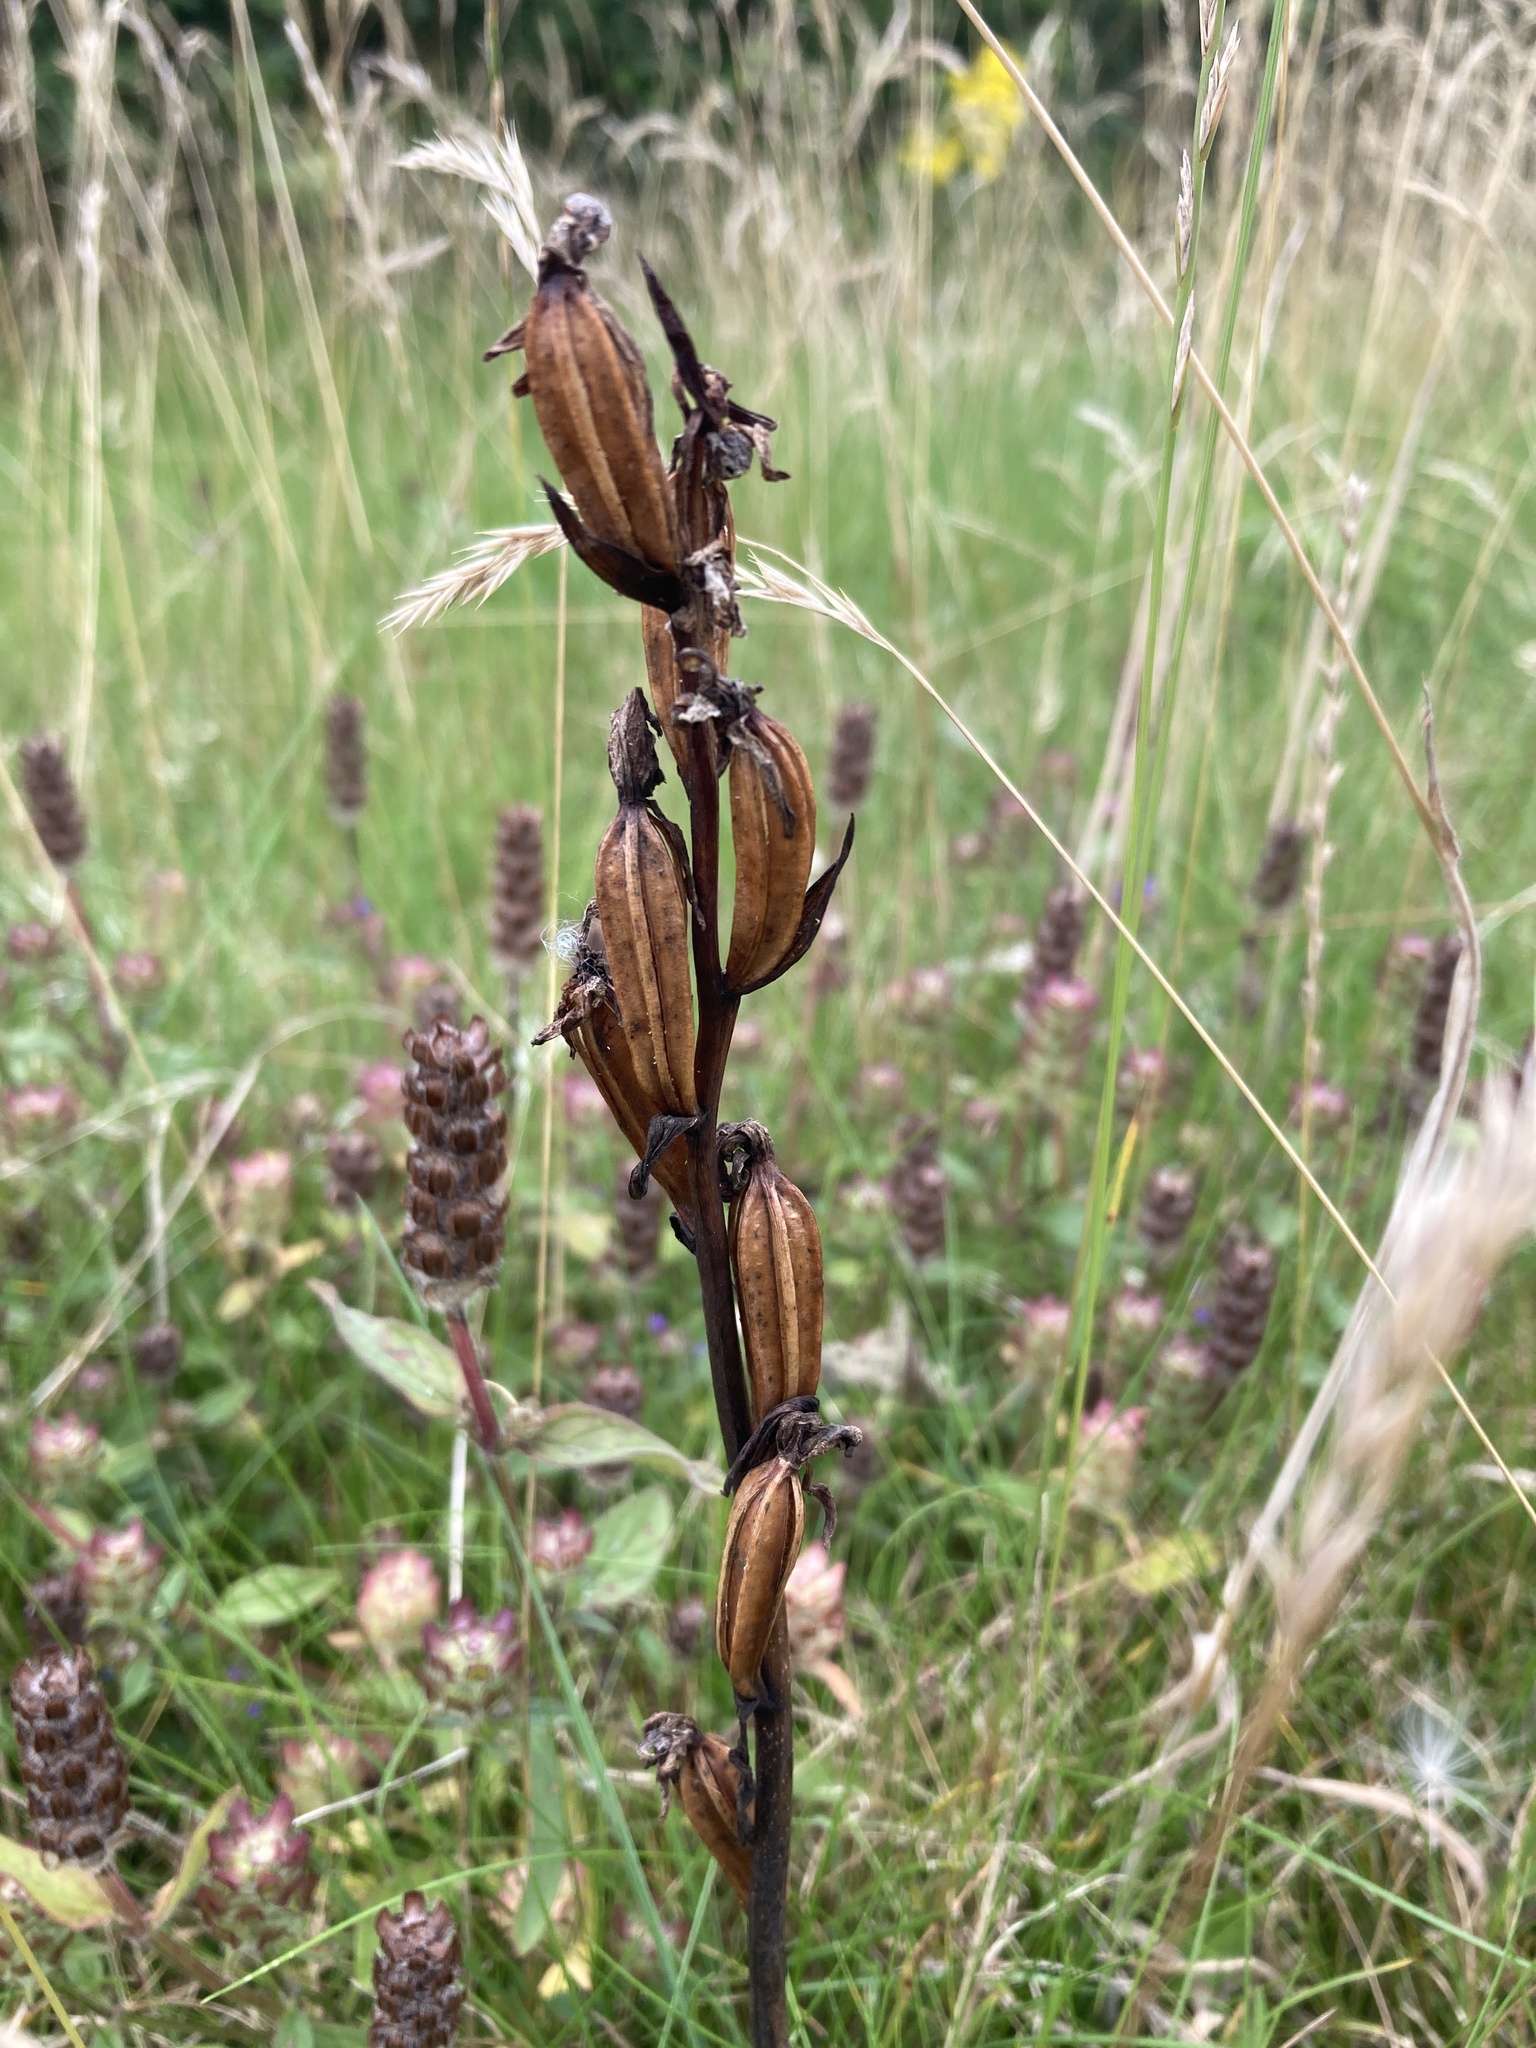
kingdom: Plantae
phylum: Tracheophyta
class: Liliopsida
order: Asparagales
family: Orchidaceae
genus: Ophrys
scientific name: Ophrys apifera
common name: Bee orchid
